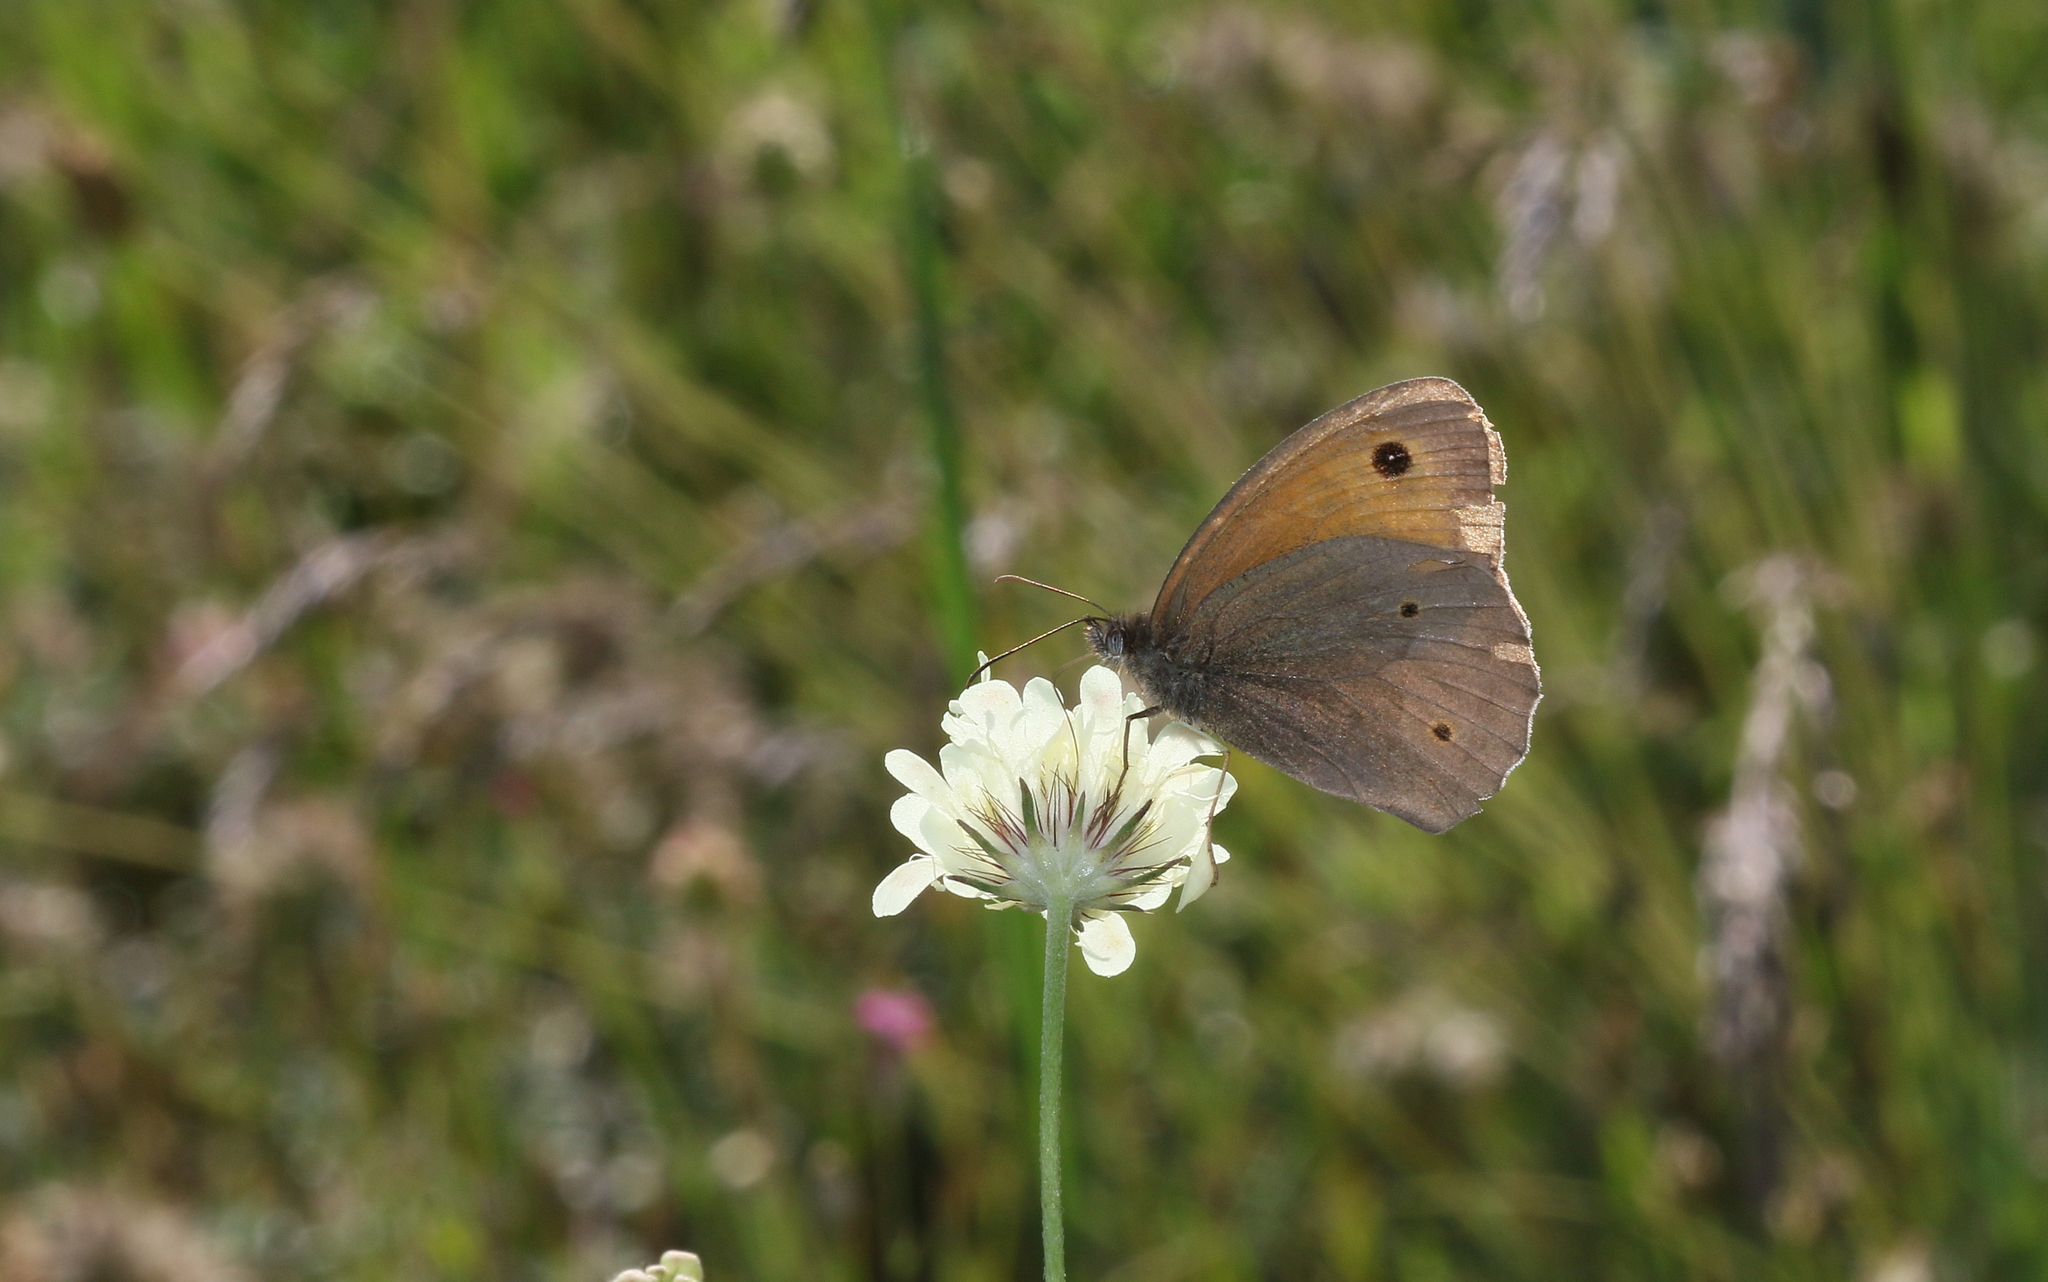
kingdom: Animalia
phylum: Arthropoda
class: Insecta
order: Lepidoptera
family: Nymphalidae
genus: Maniola
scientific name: Maniola jurtina
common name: Meadow brown
